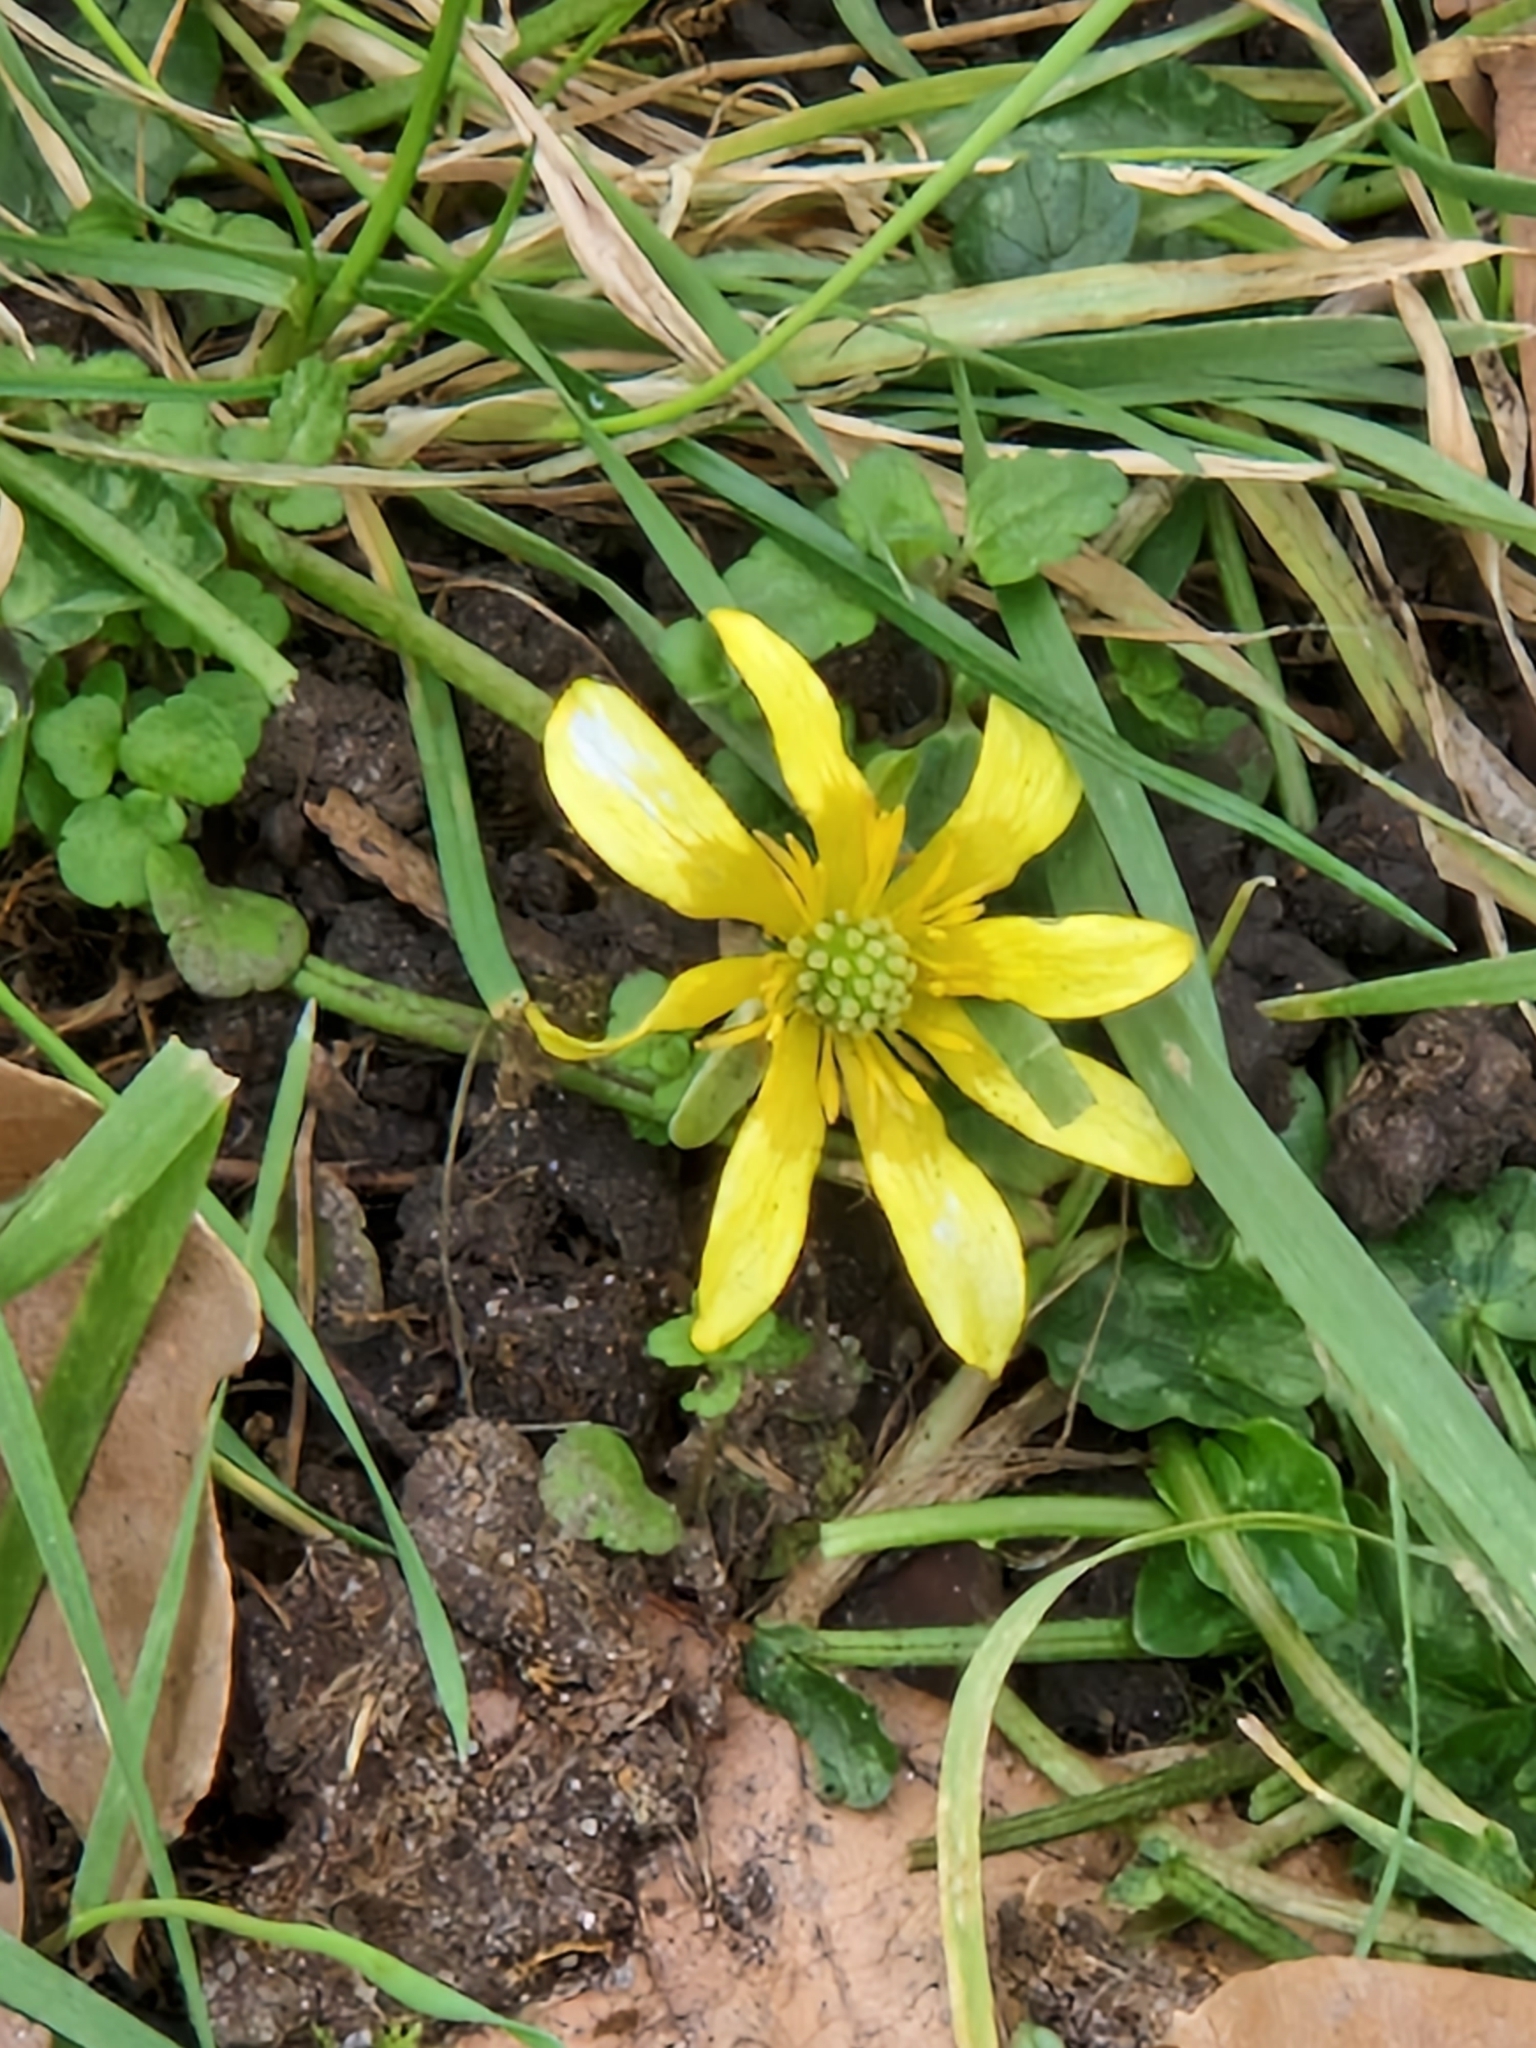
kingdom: Plantae
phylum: Tracheophyta
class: Magnoliopsida
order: Ranunculales
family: Ranunculaceae
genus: Ficaria
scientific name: Ficaria verna
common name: Lesser celandine
